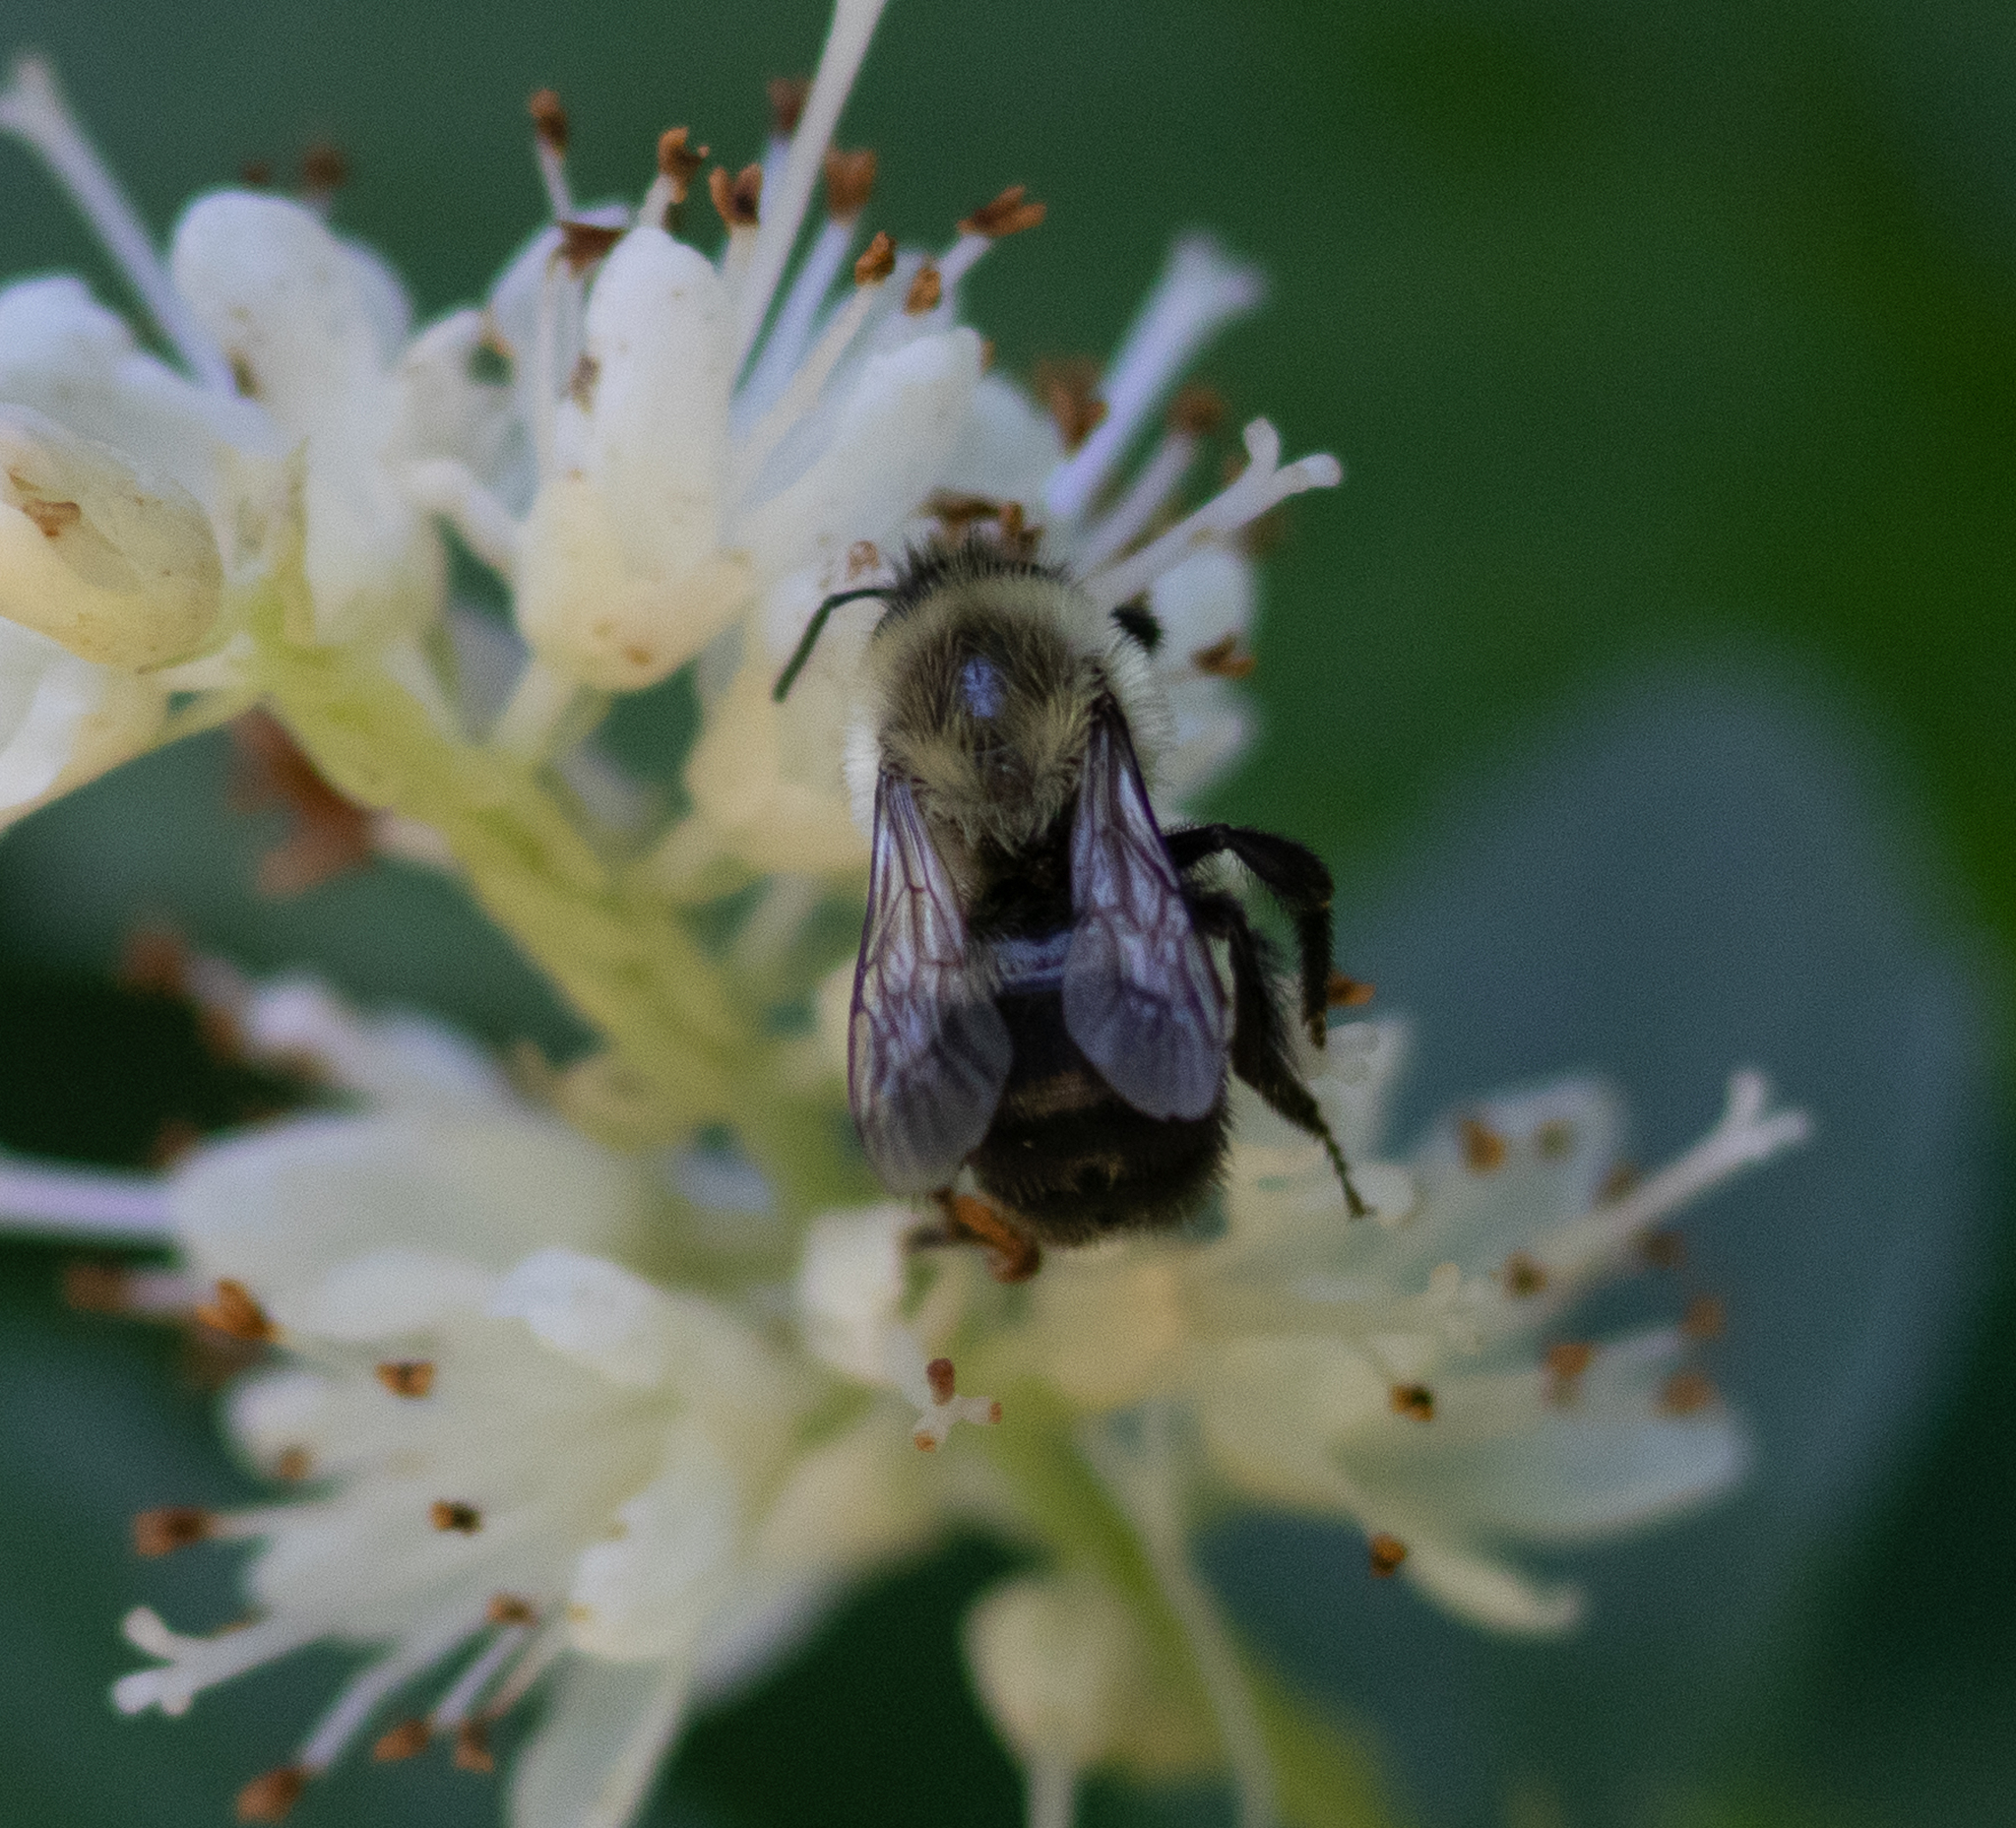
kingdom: Animalia
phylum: Arthropoda
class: Insecta
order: Hymenoptera
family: Apidae
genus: Bombus
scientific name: Bombus impatiens
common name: Common eastern bumble bee
